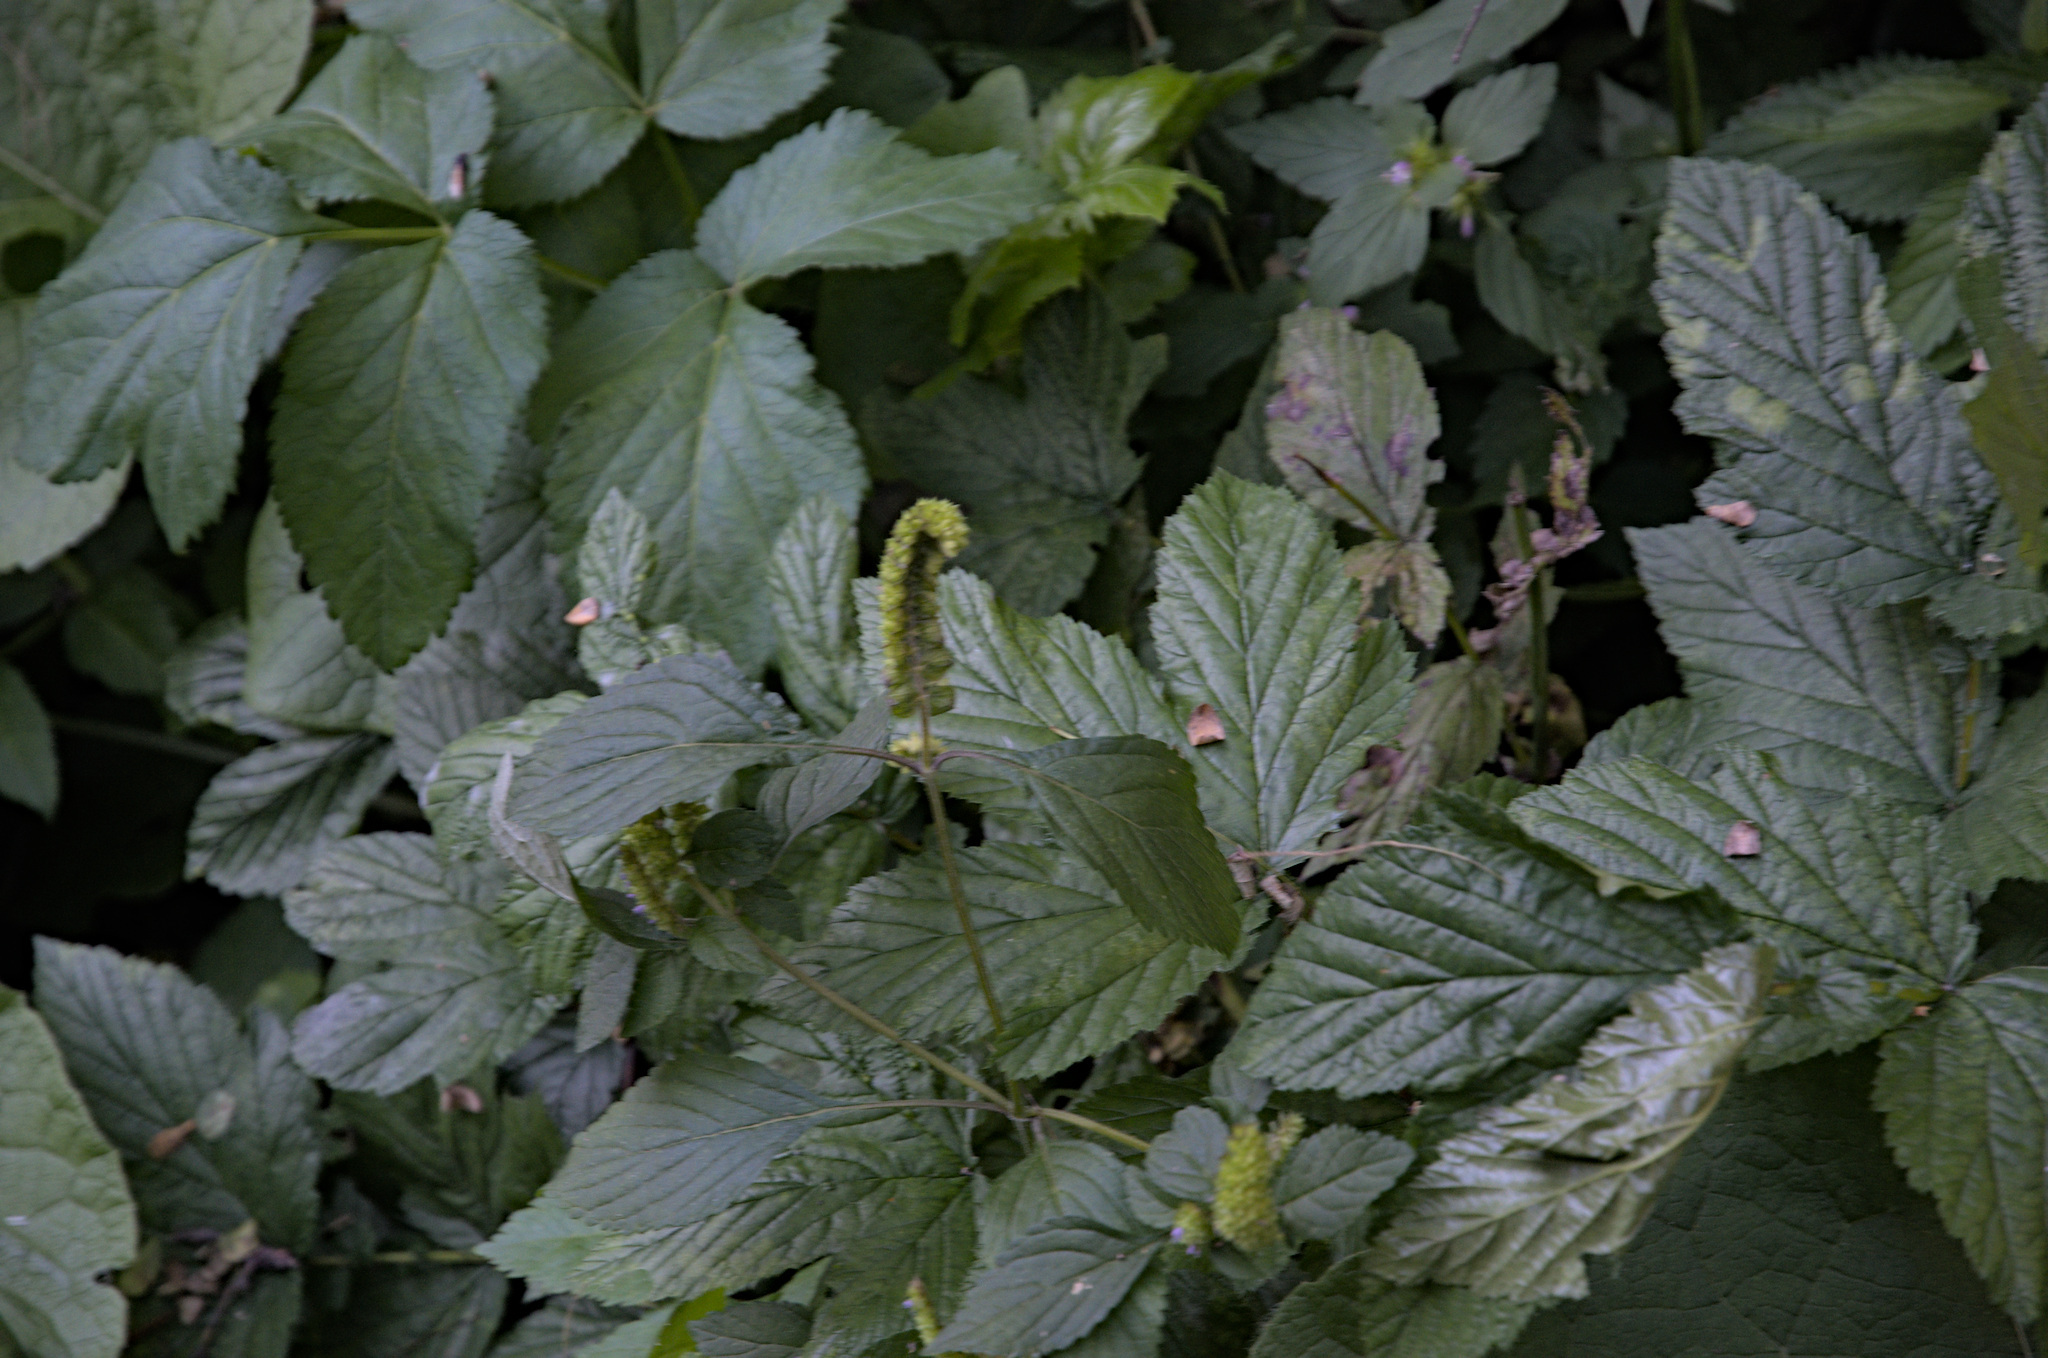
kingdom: Plantae
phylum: Tracheophyta
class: Magnoliopsida
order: Rosales
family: Rosaceae
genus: Filipendula
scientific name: Filipendula ulmaria
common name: Meadowsweet
